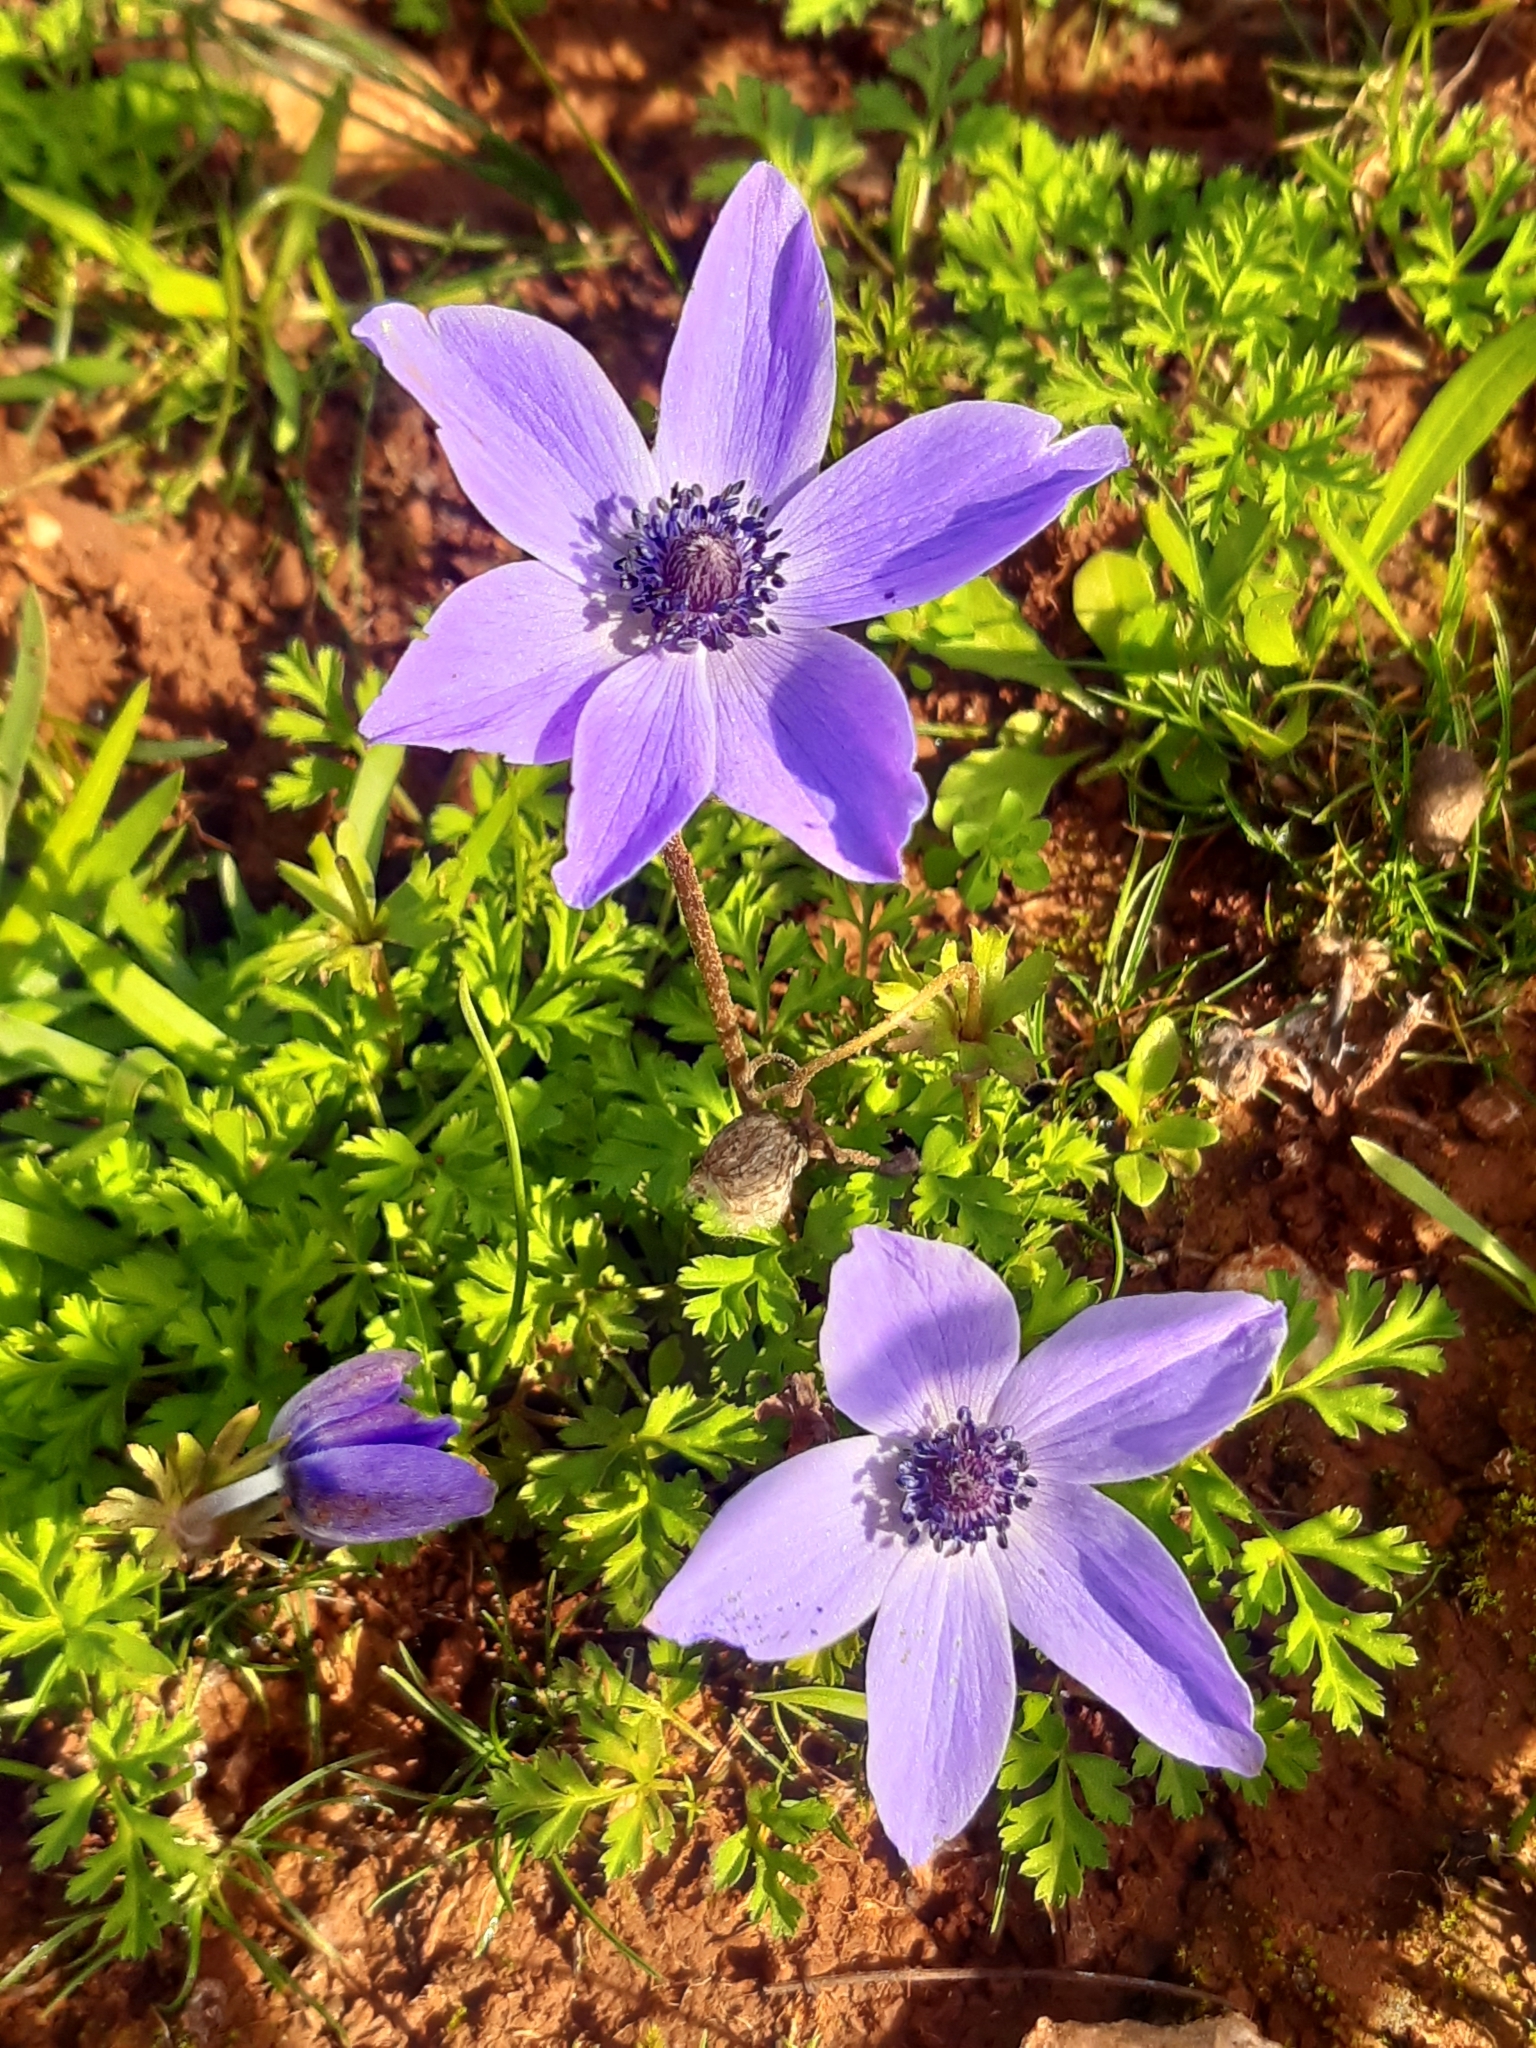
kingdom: Plantae
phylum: Tracheophyta
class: Magnoliopsida
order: Ranunculales
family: Ranunculaceae
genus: Anemone
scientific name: Anemone coronaria
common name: Poppy anemone
